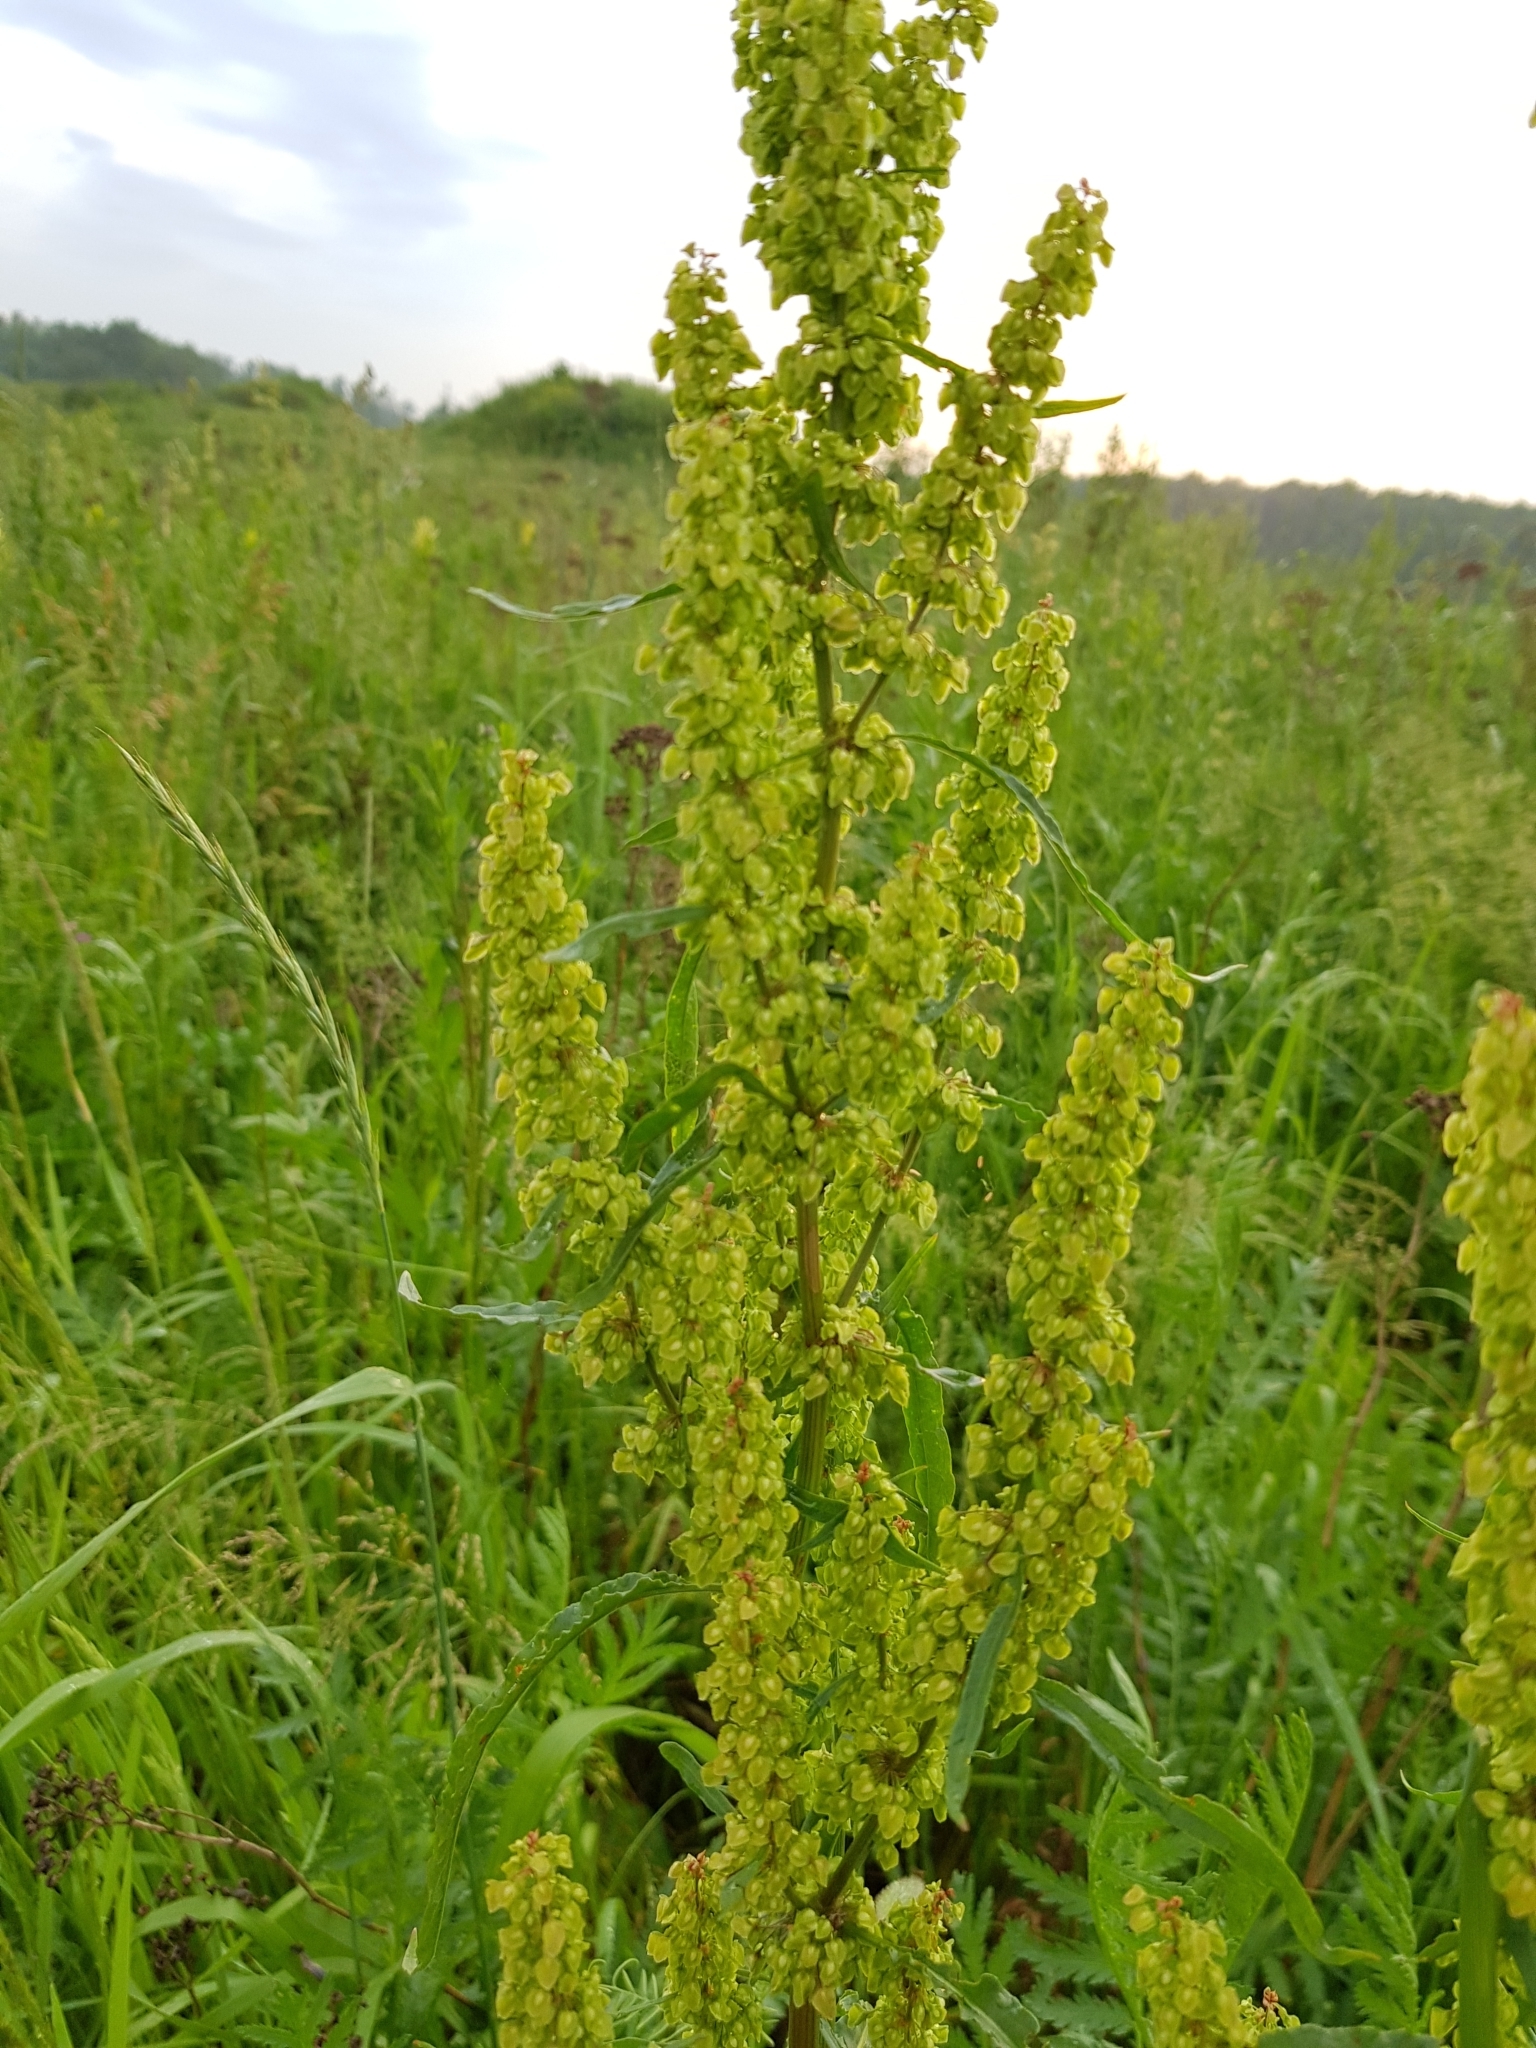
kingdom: Plantae
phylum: Tracheophyta
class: Magnoliopsida
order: Caryophyllales
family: Polygonaceae
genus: Rumex
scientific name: Rumex crispus
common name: Curled dock
